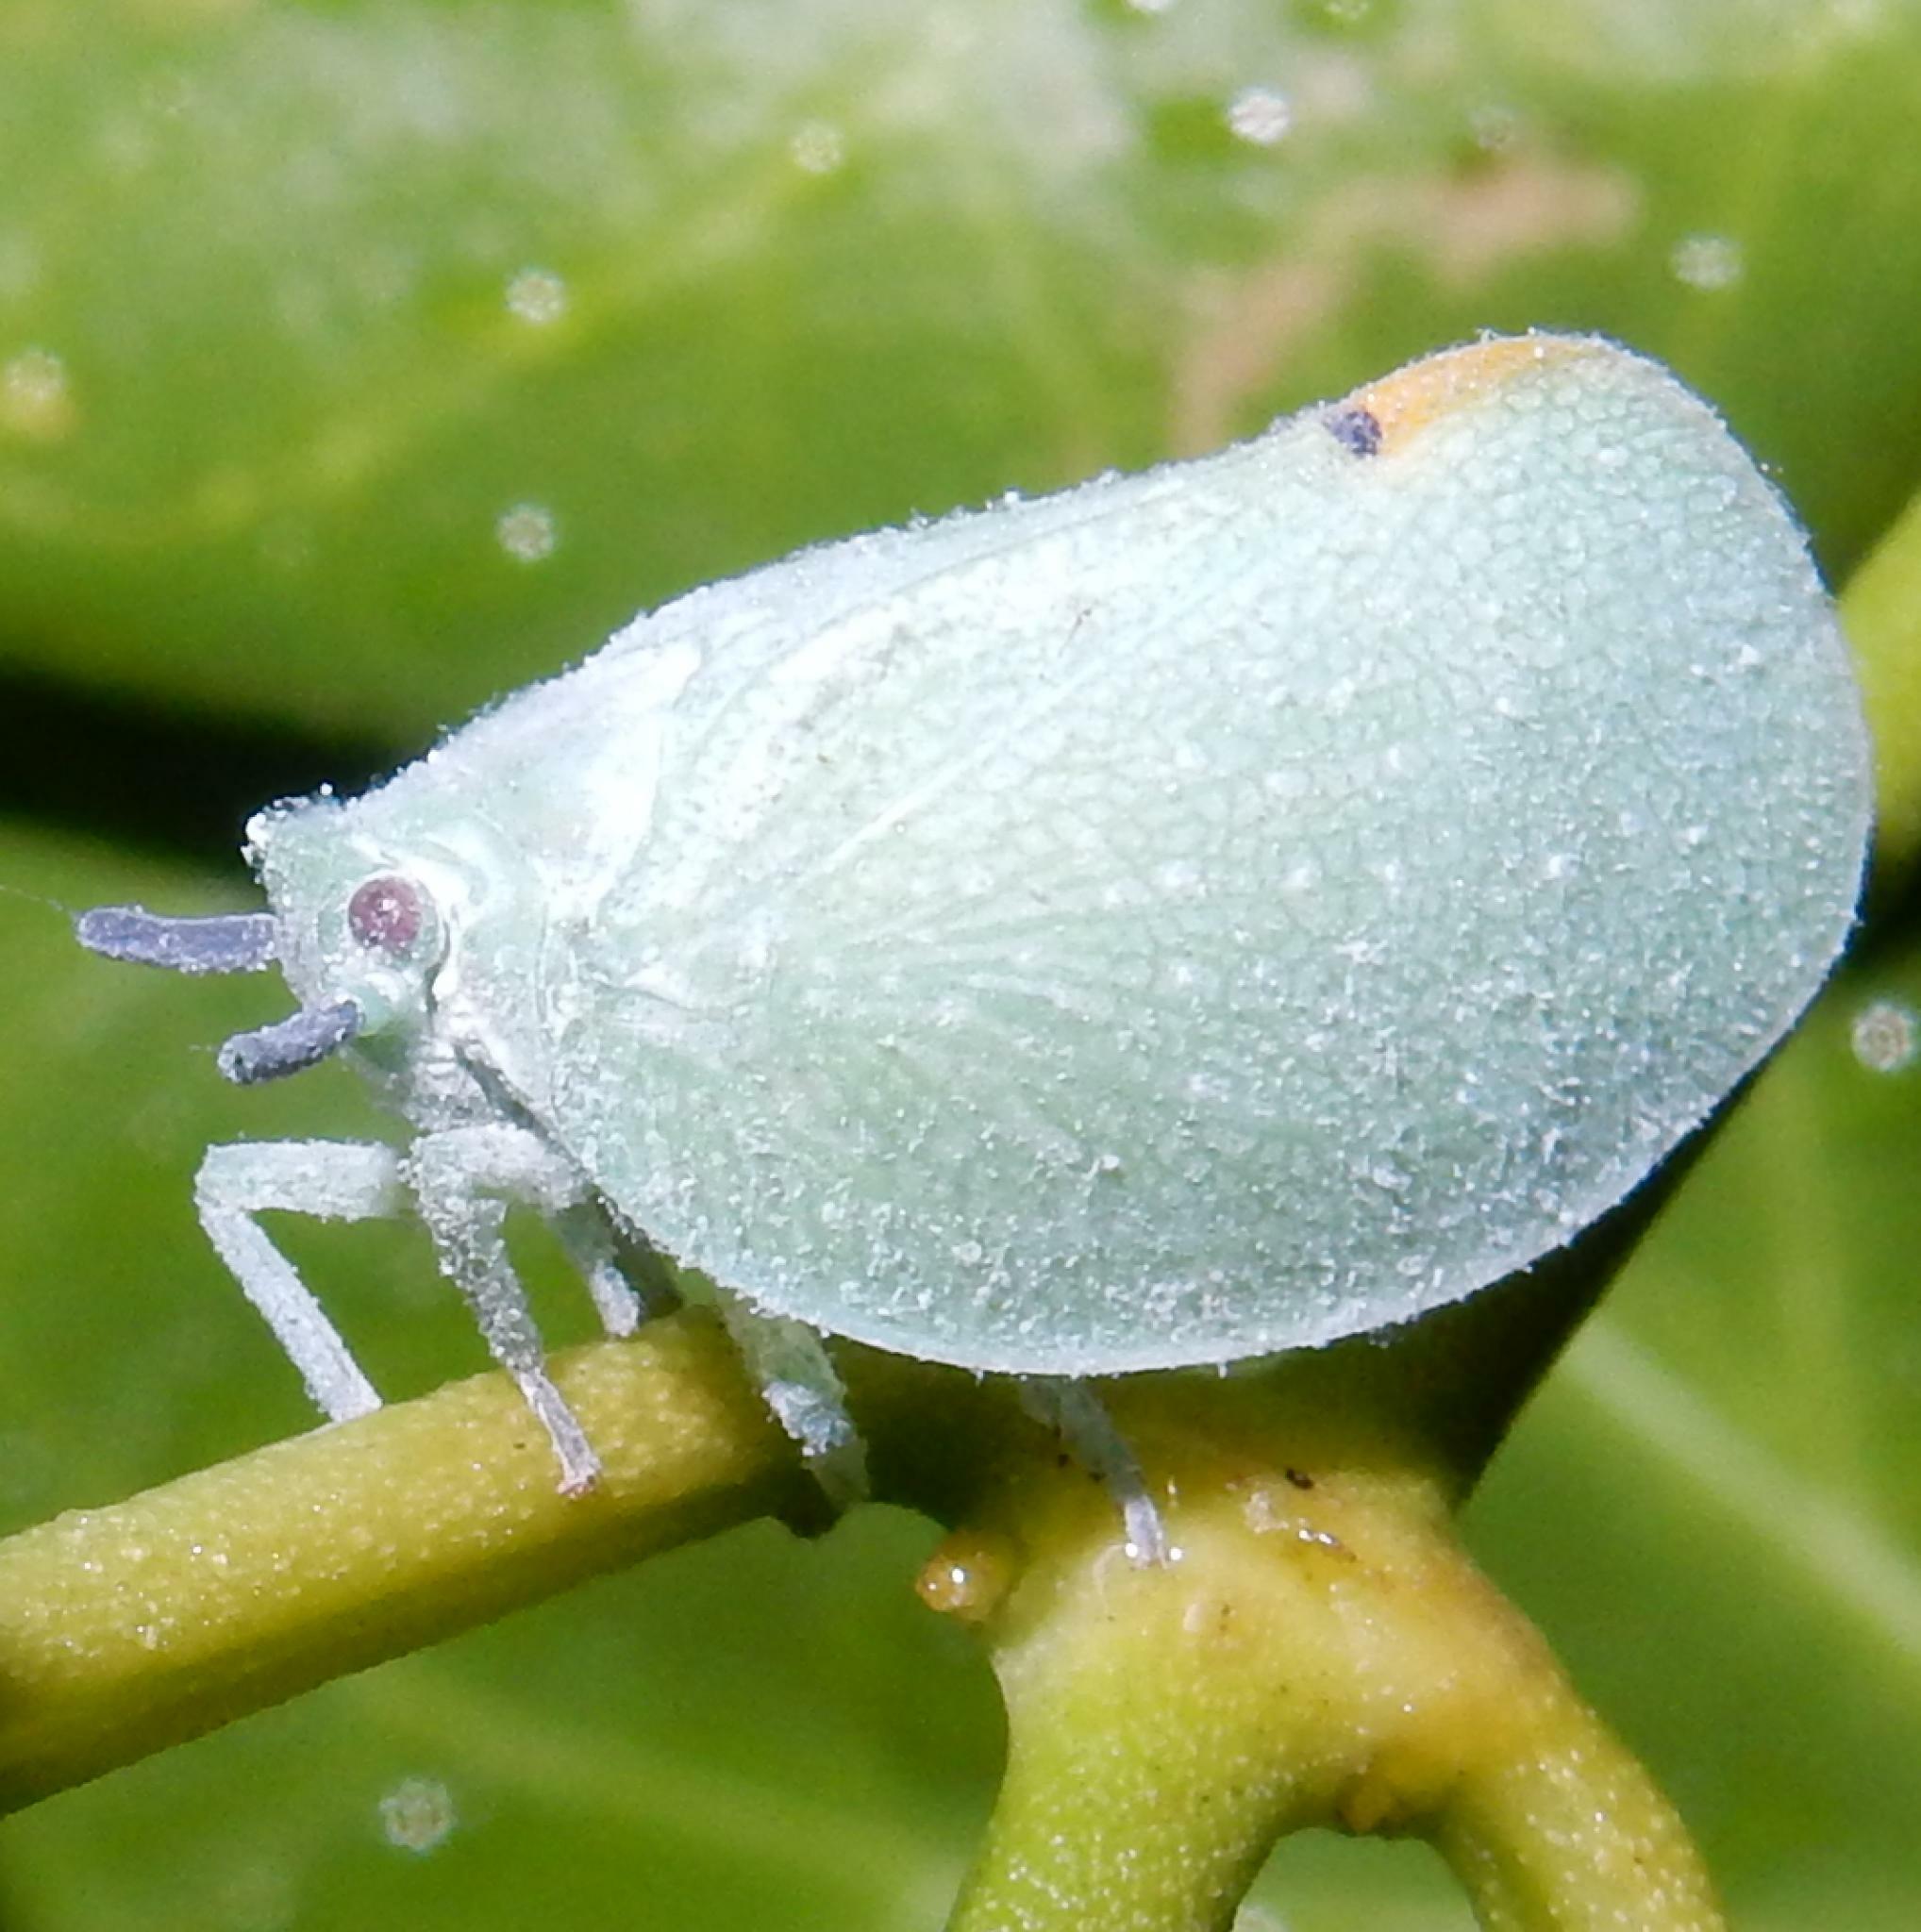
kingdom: Animalia
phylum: Arthropoda
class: Insecta
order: Hemiptera
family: Flatidae
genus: Dalapax
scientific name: Dalapax postica
